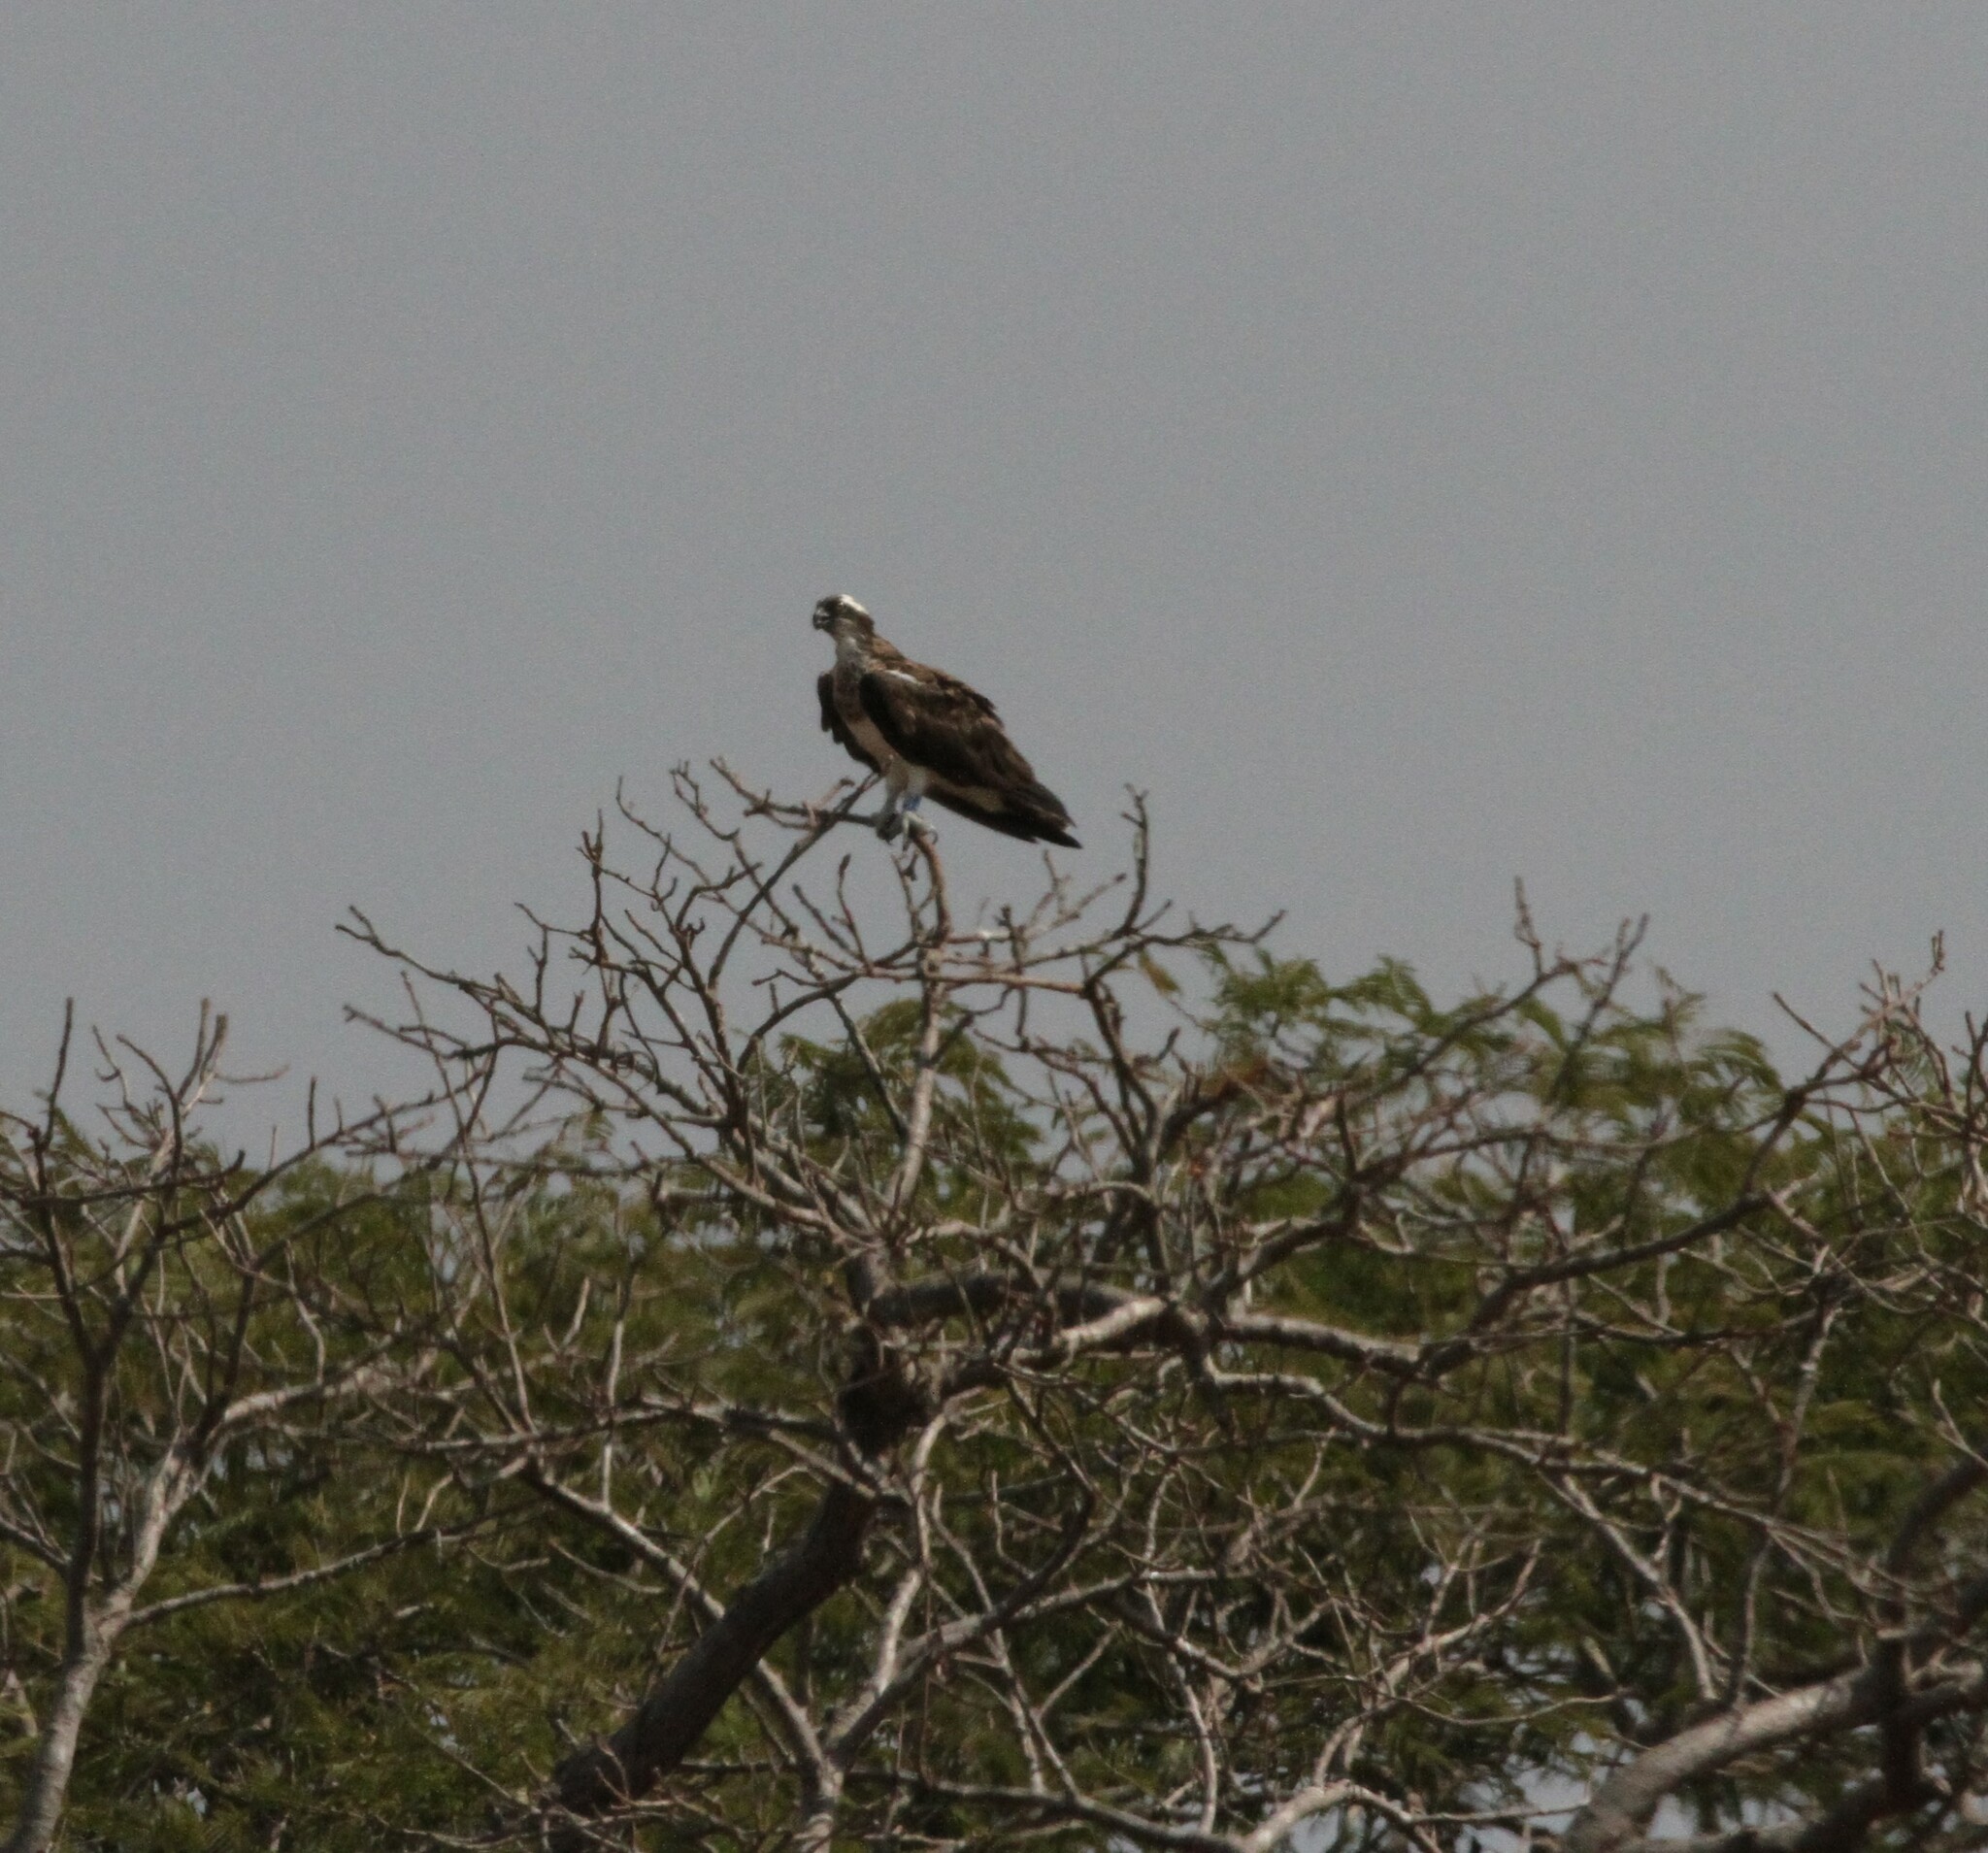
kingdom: Animalia
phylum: Chordata
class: Aves
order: Accipitriformes
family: Pandionidae
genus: Pandion
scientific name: Pandion haliaetus
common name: Osprey
